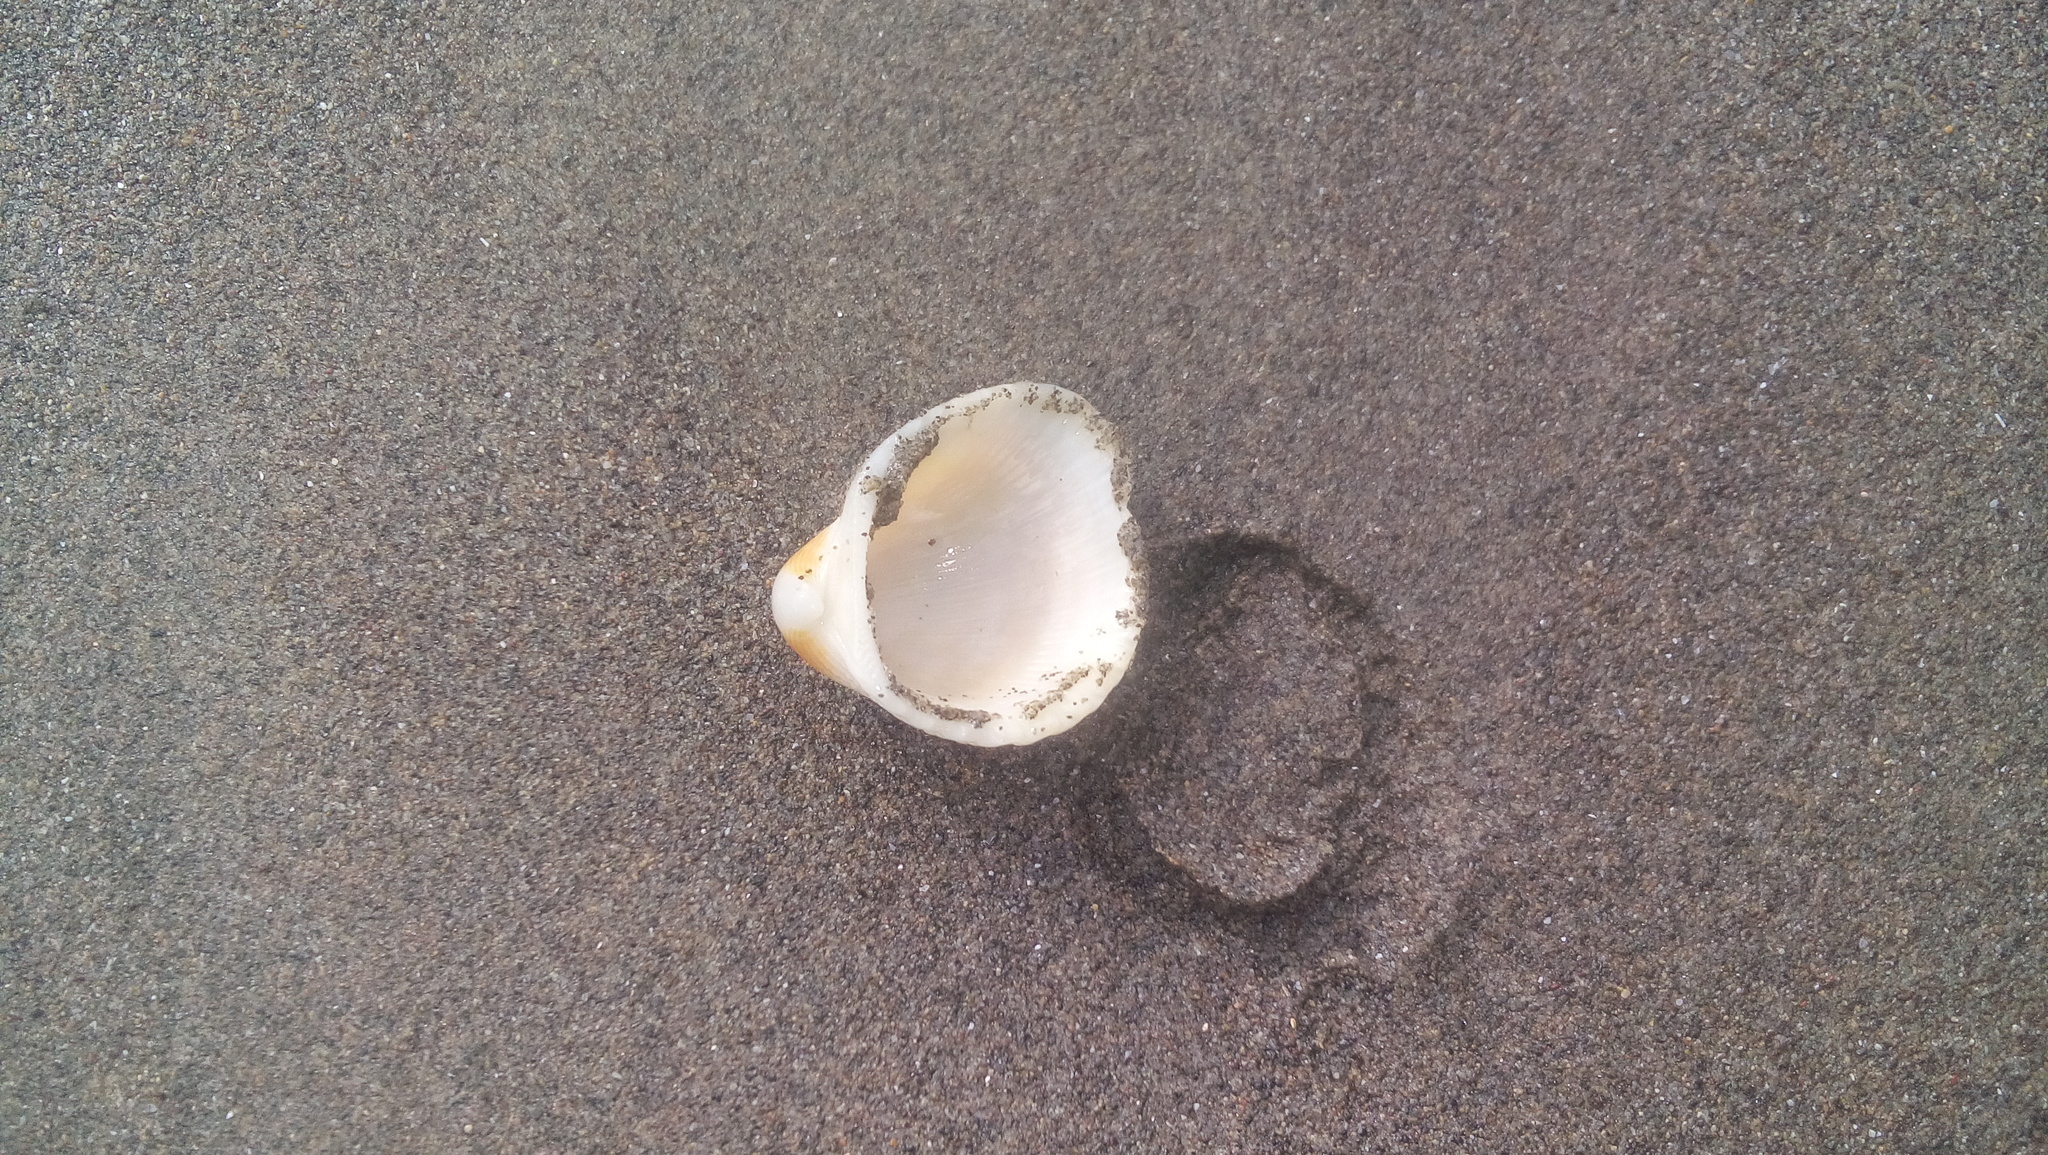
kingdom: Animalia
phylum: Mollusca
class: Bivalvia
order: Arcida
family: Arcidae
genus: Anadara
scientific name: Anadara chemnitzii
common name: Chemnitz's triangular ark
